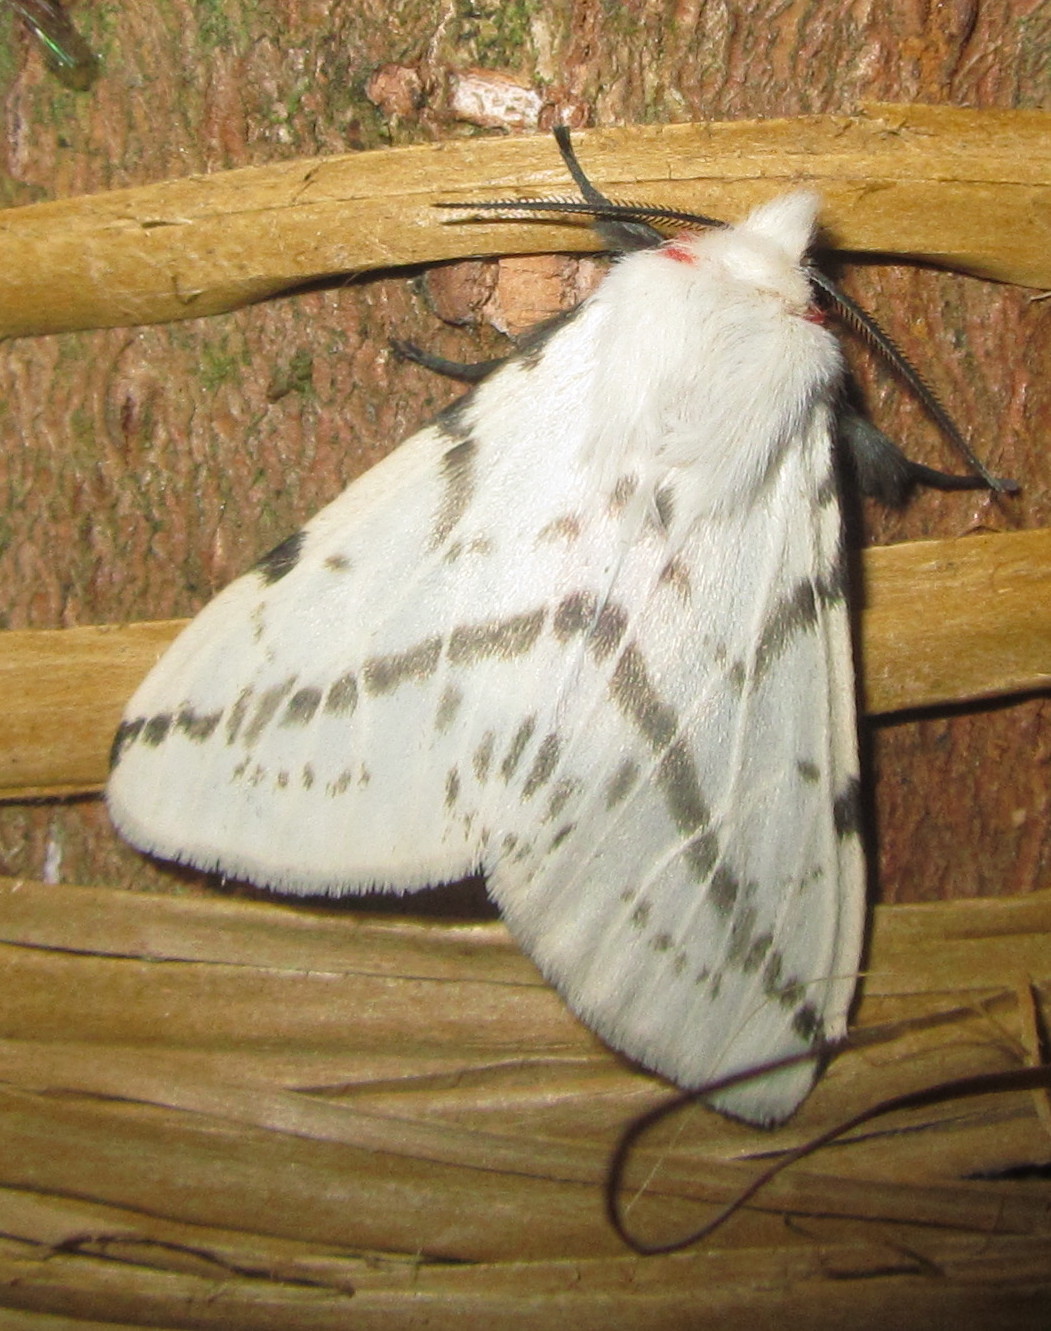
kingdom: Animalia
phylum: Arthropoda
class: Insecta
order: Lepidoptera
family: Erebidae
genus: Lemyra
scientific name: Lemyra multivittata
